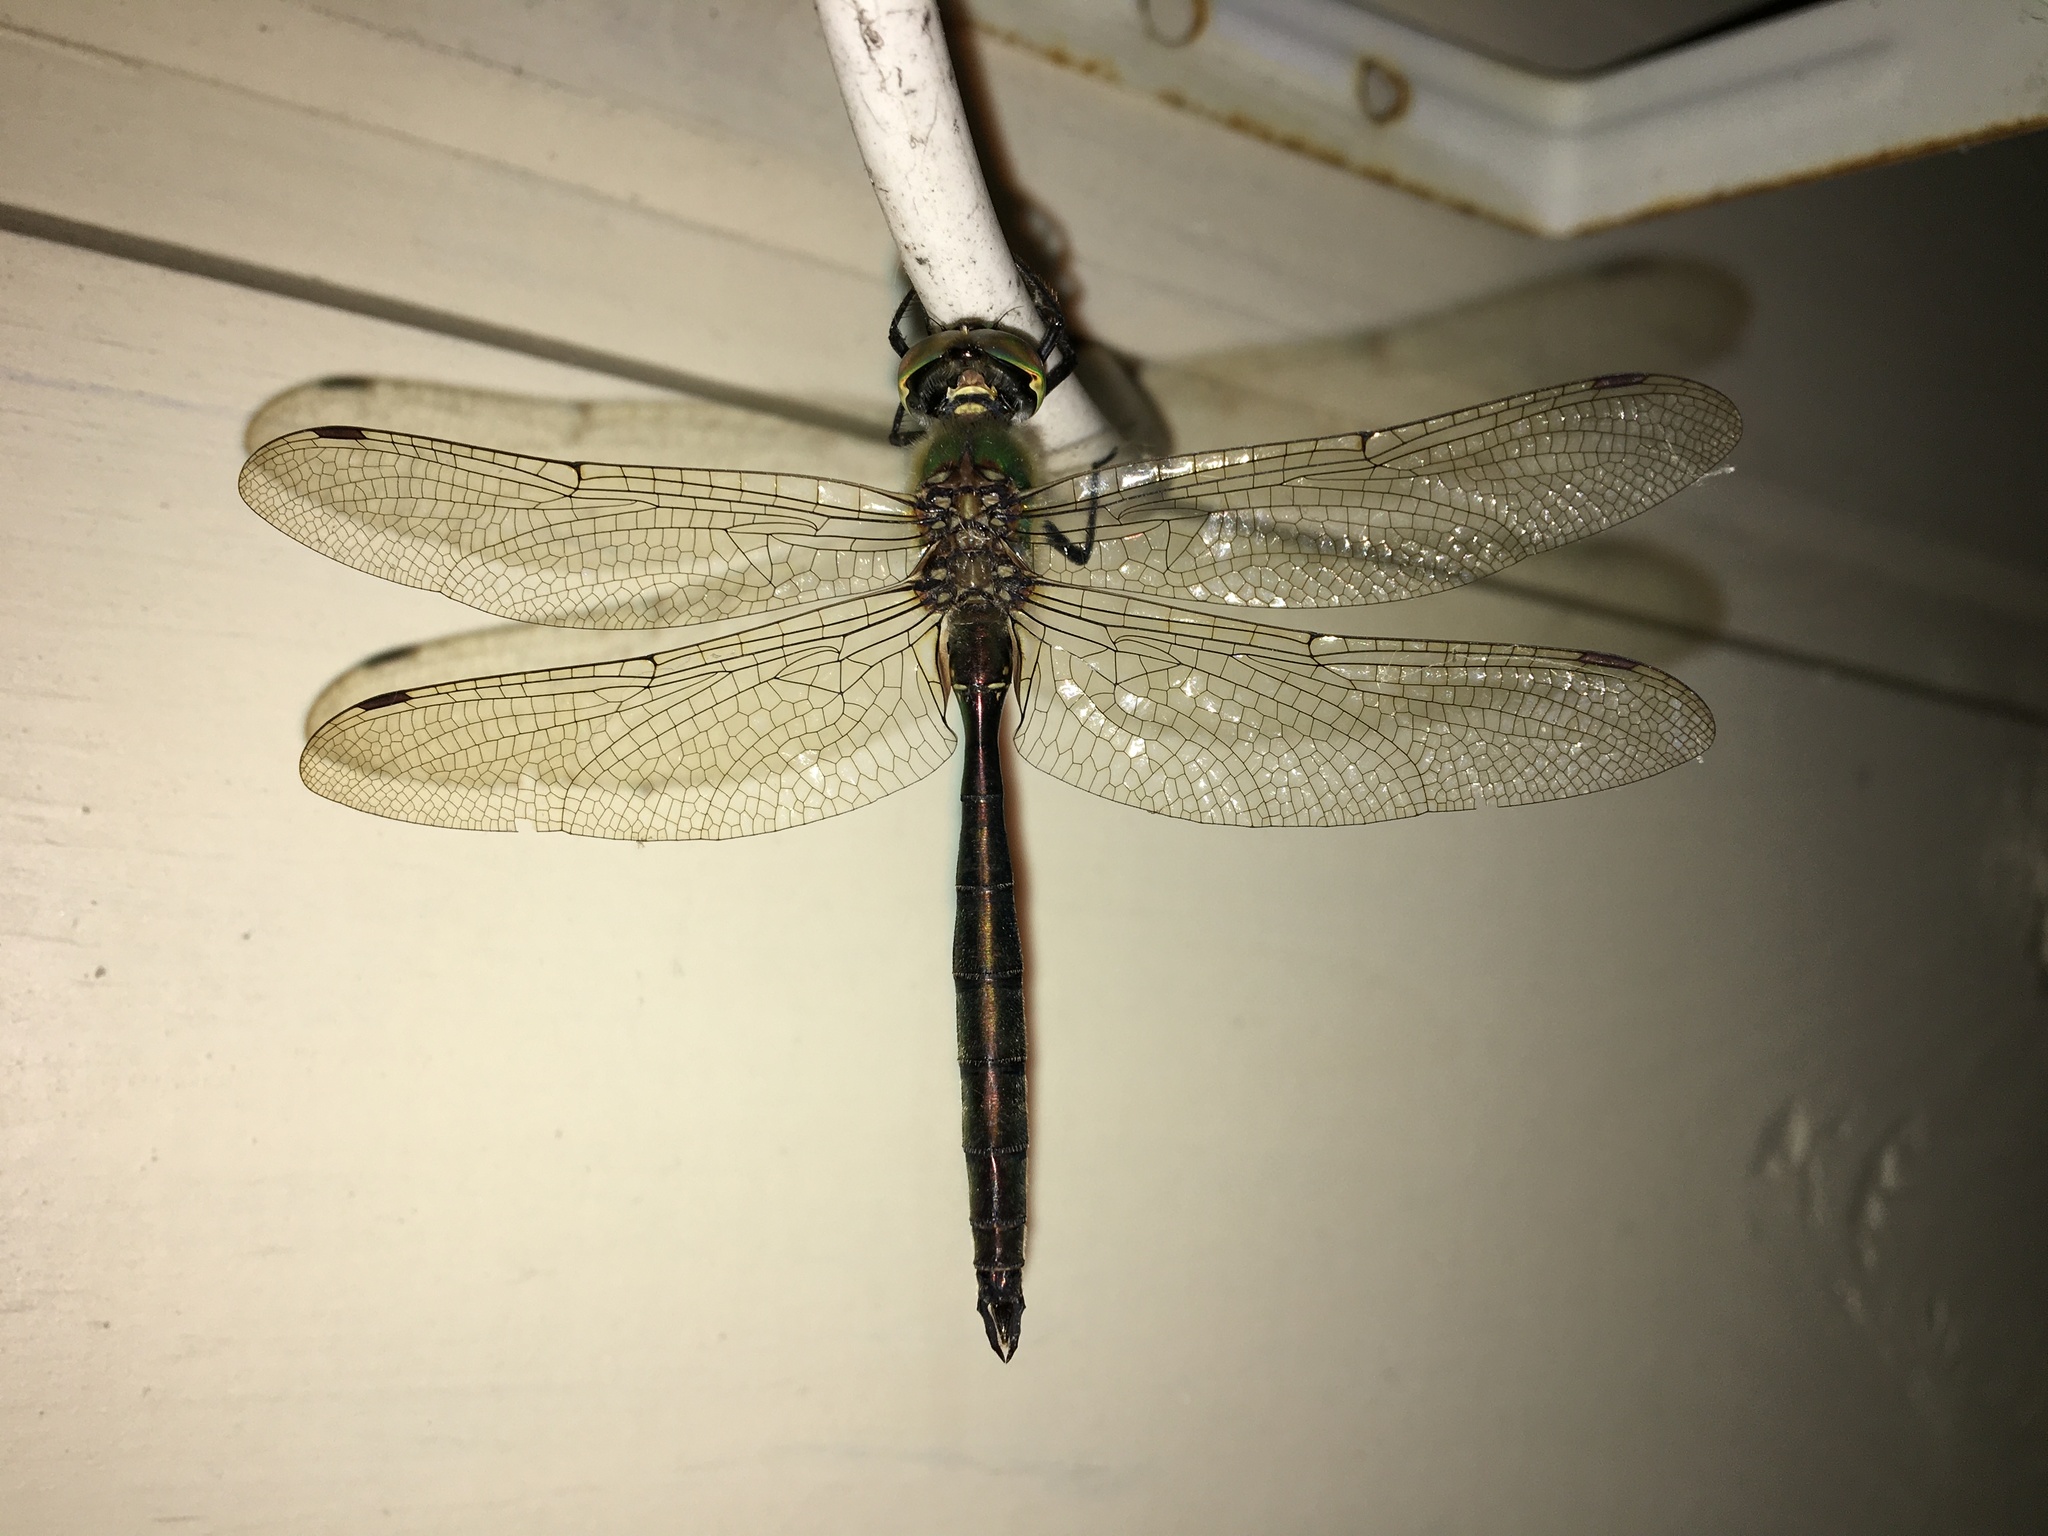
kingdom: Animalia
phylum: Arthropoda
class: Insecta
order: Odonata
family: Corduliidae
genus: Somatochlora
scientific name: Somatochlora metallica
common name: Brilliant emerald
